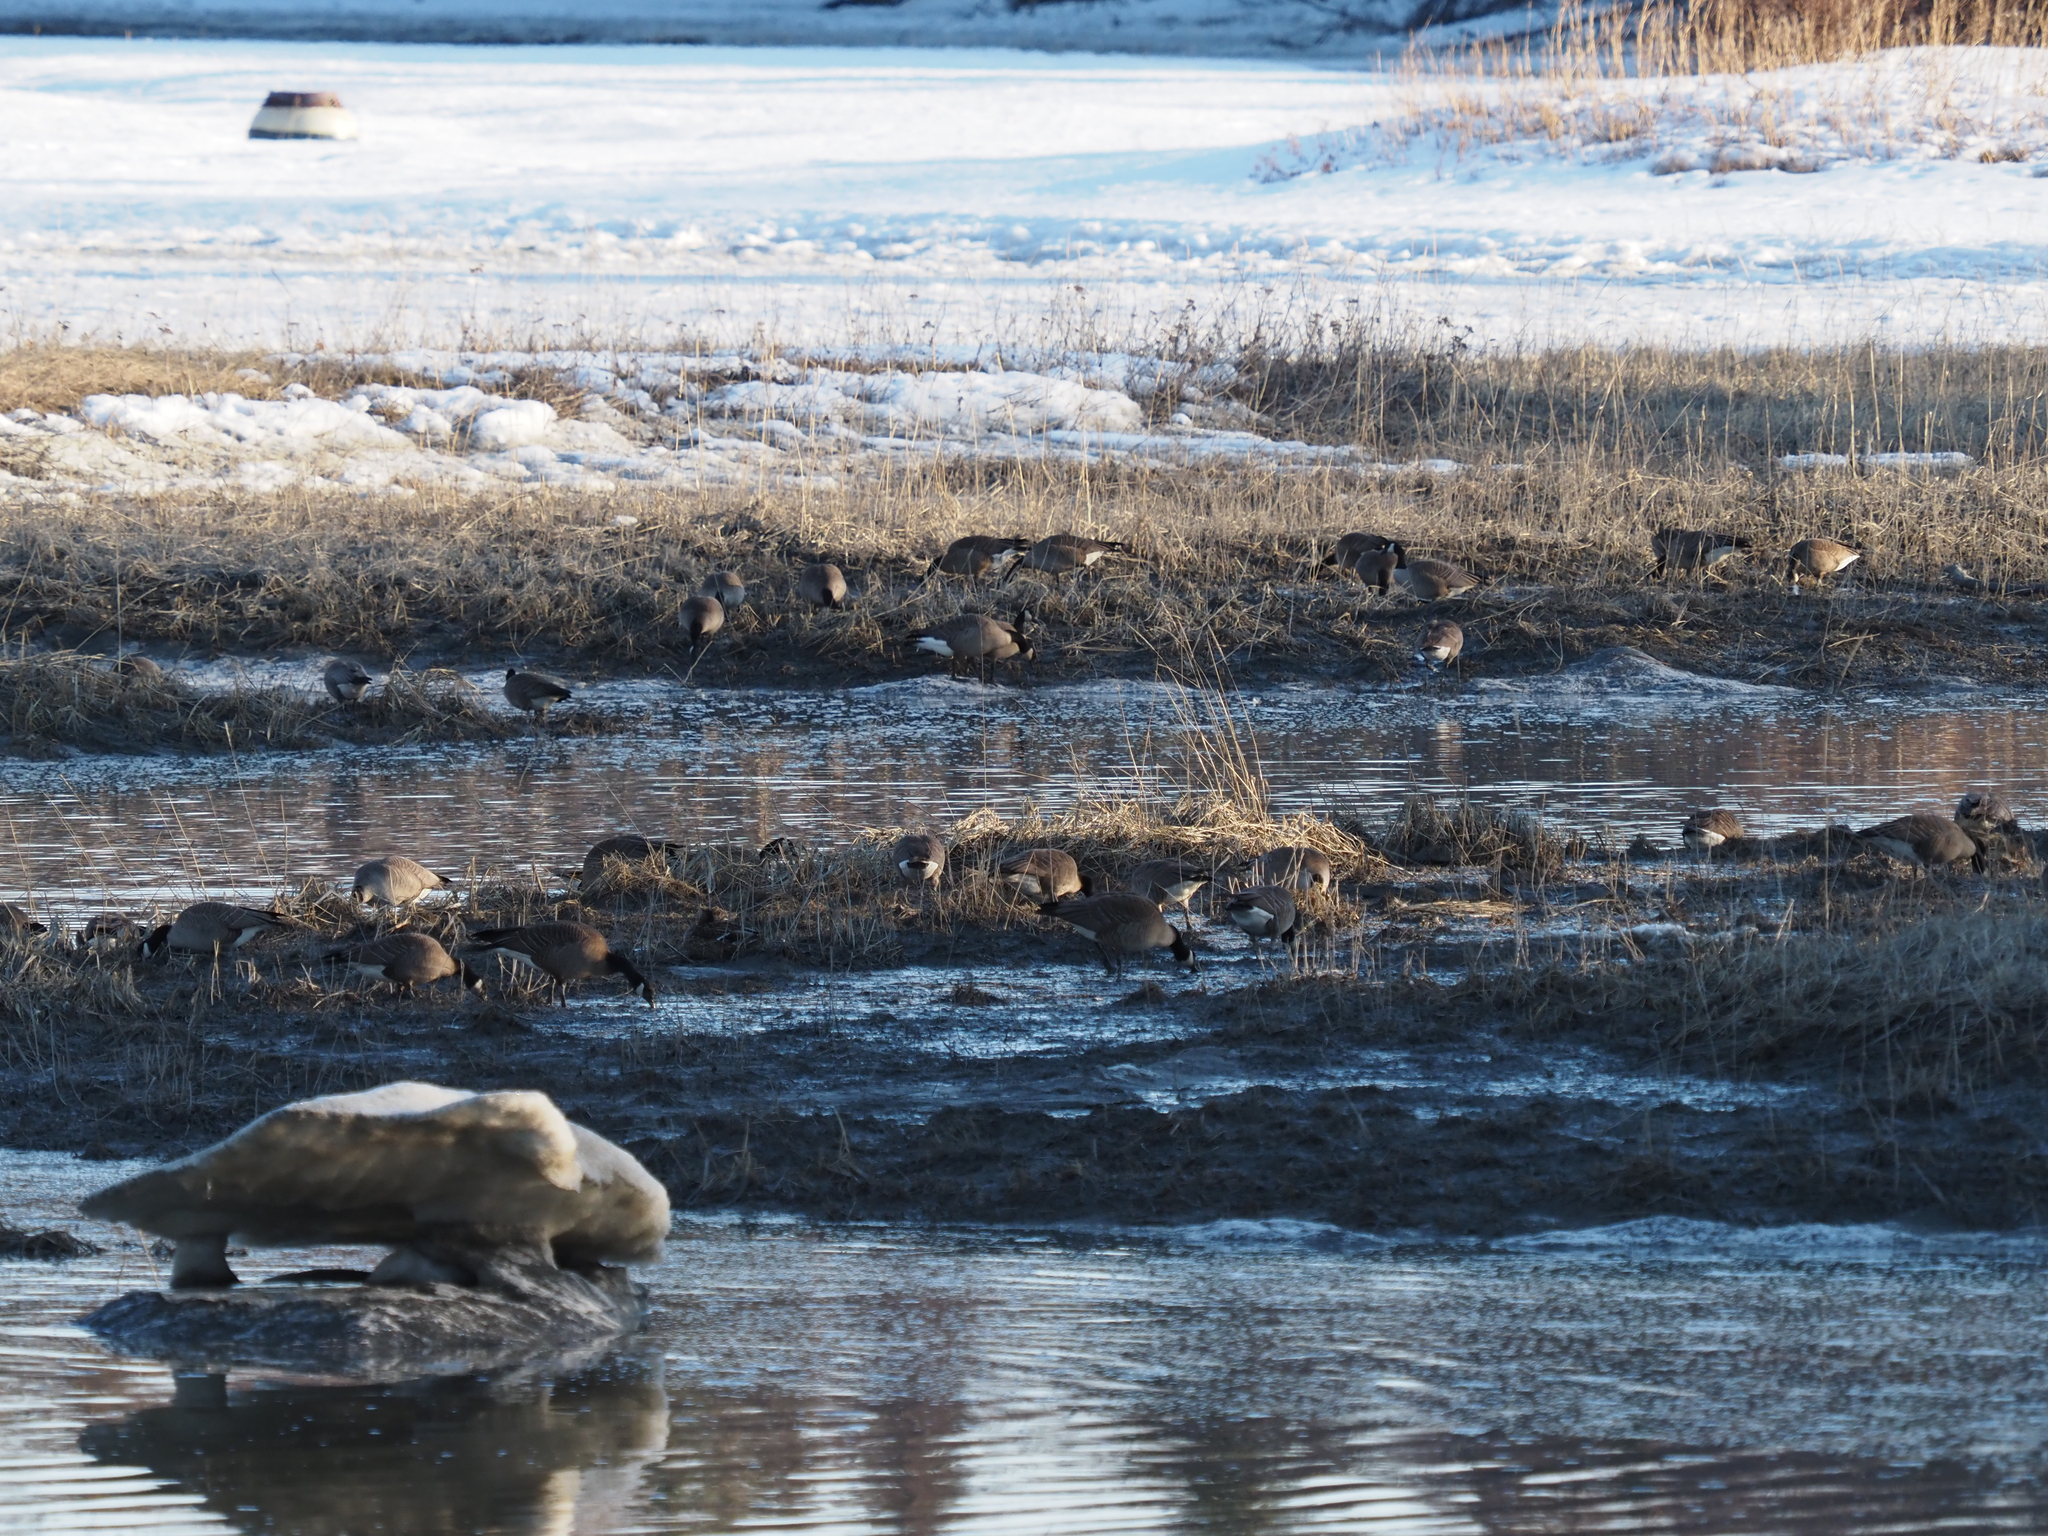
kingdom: Animalia
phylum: Chordata
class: Aves
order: Anseriformes
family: Anatidae
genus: Branta
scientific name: Branta canadensis
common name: Canada goose
